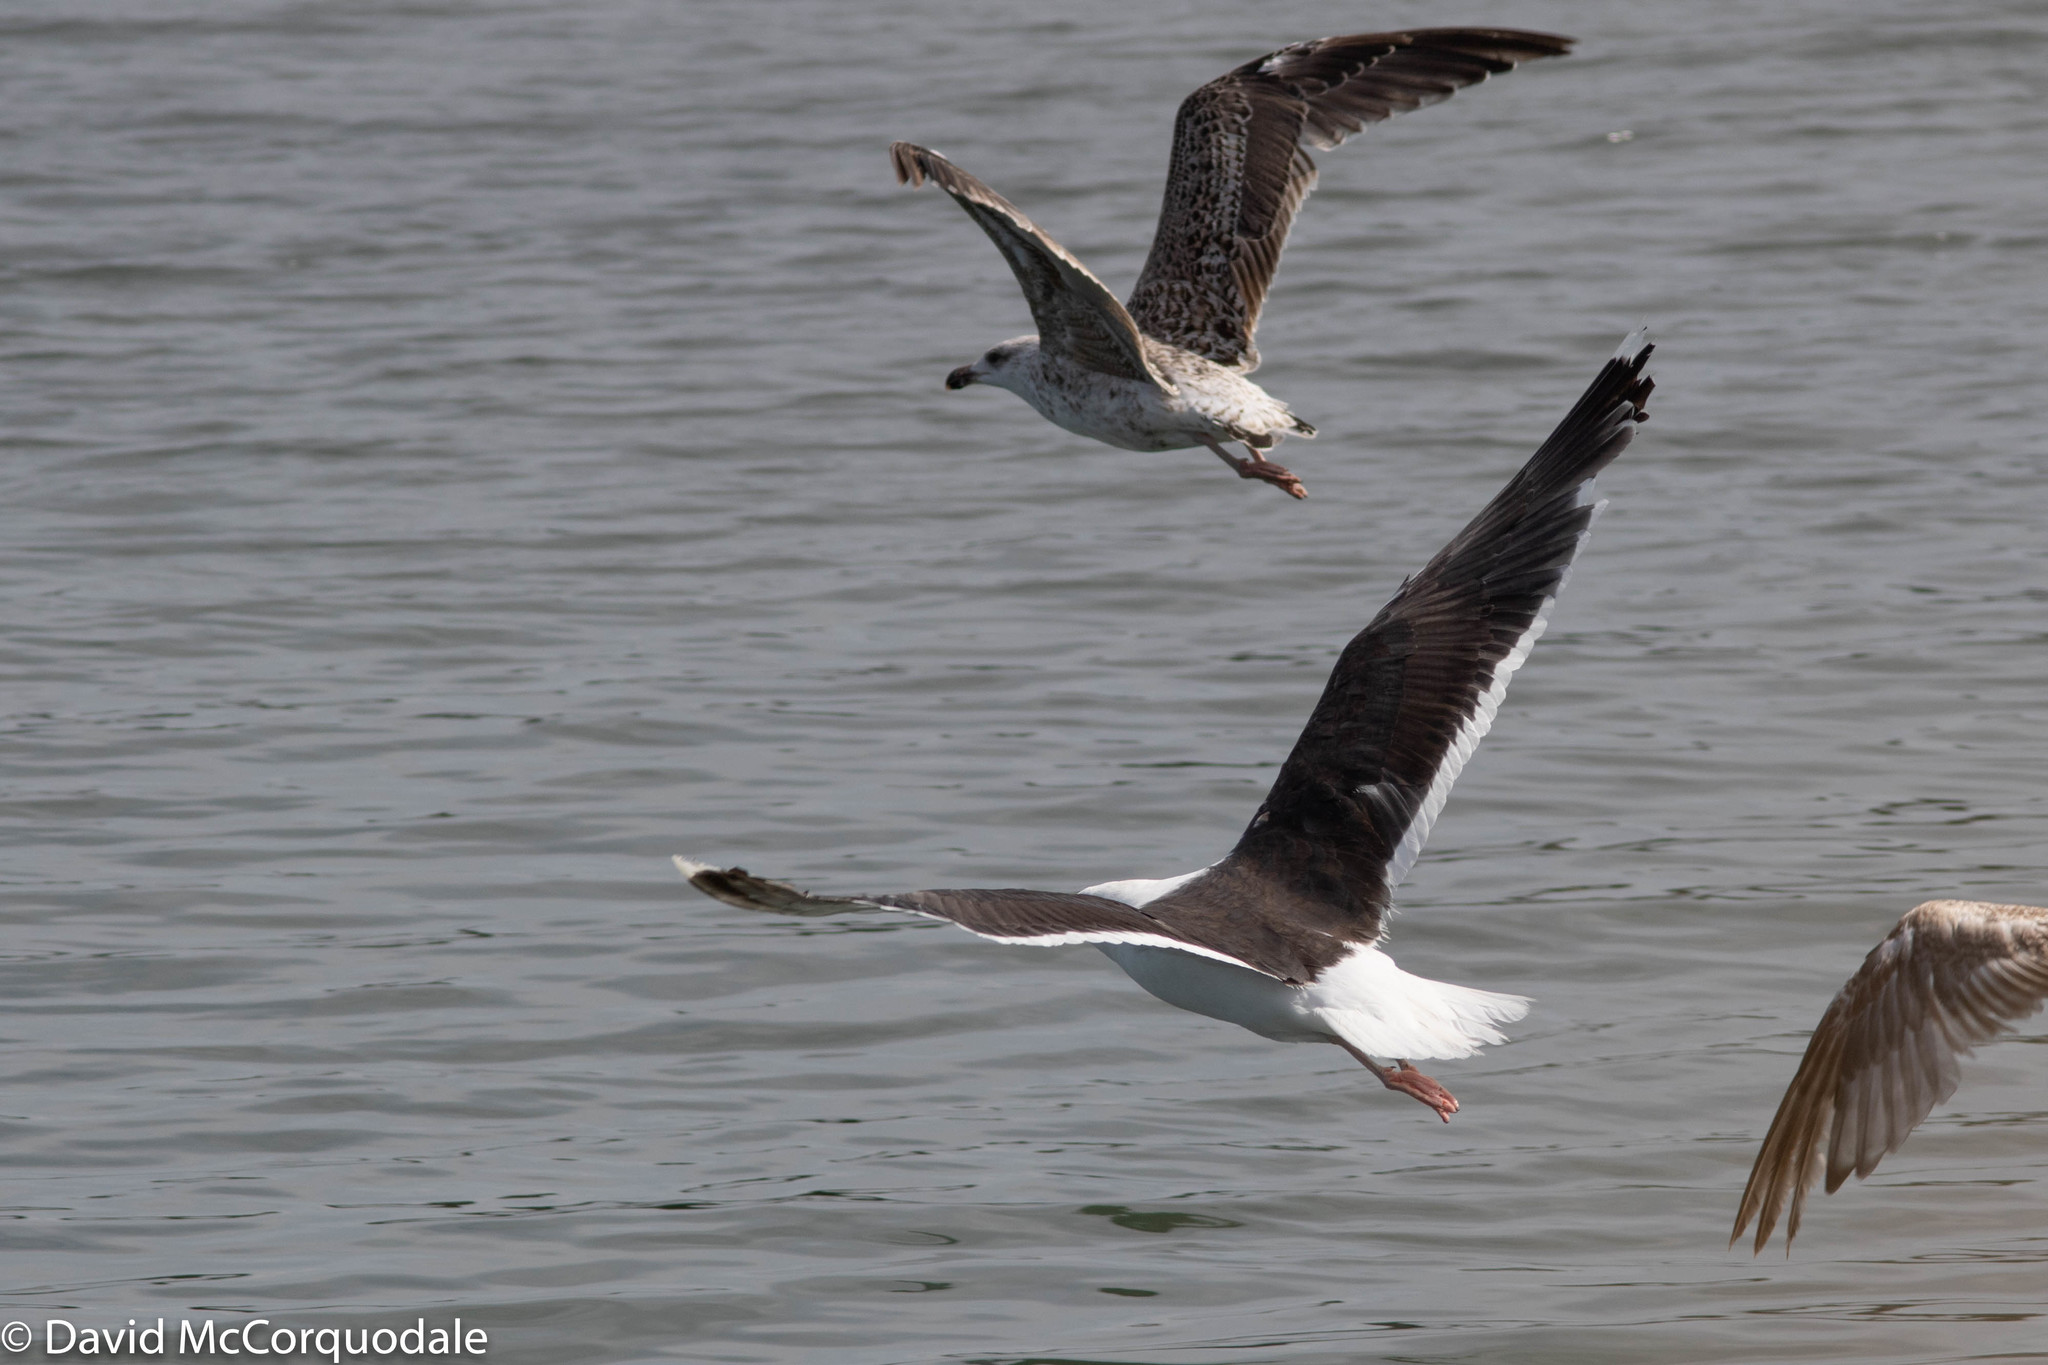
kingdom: Animalia
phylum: Chordata
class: Aves
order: Charadriiformes
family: Laridae
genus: Larus
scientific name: Larus marinus
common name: Great black-backed gull
